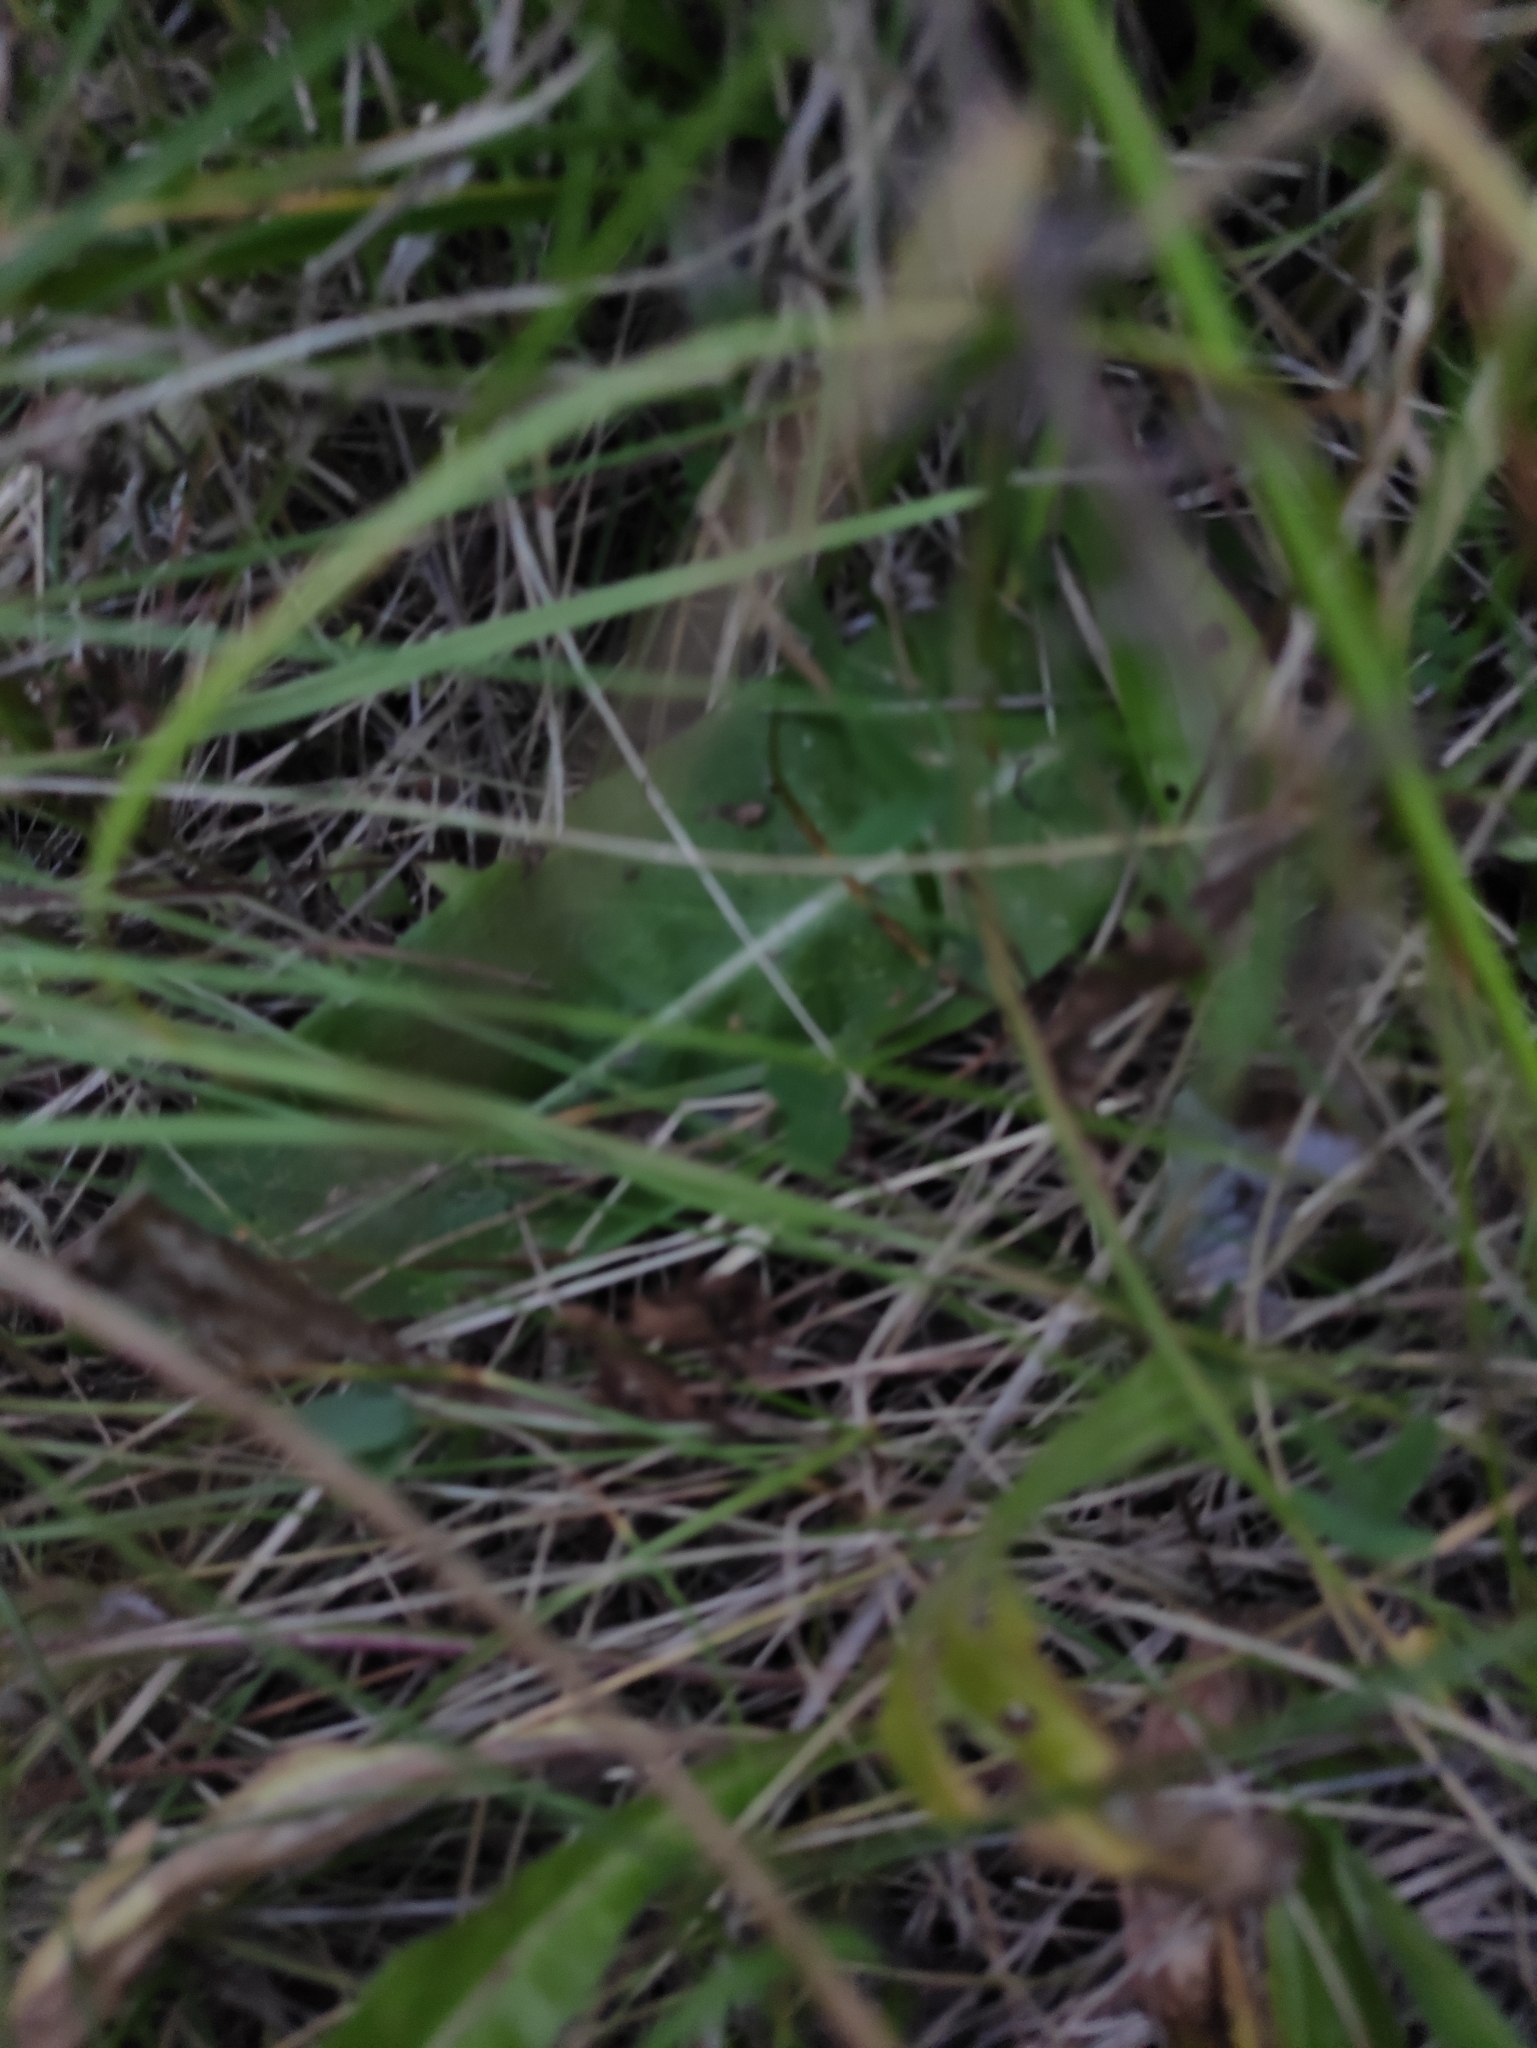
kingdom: Plantae
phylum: Tracheophyta
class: Magnoliopsida
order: Asterales
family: Asteraceae
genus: Trommsdorffia
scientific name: Trommsdorffia maculata
